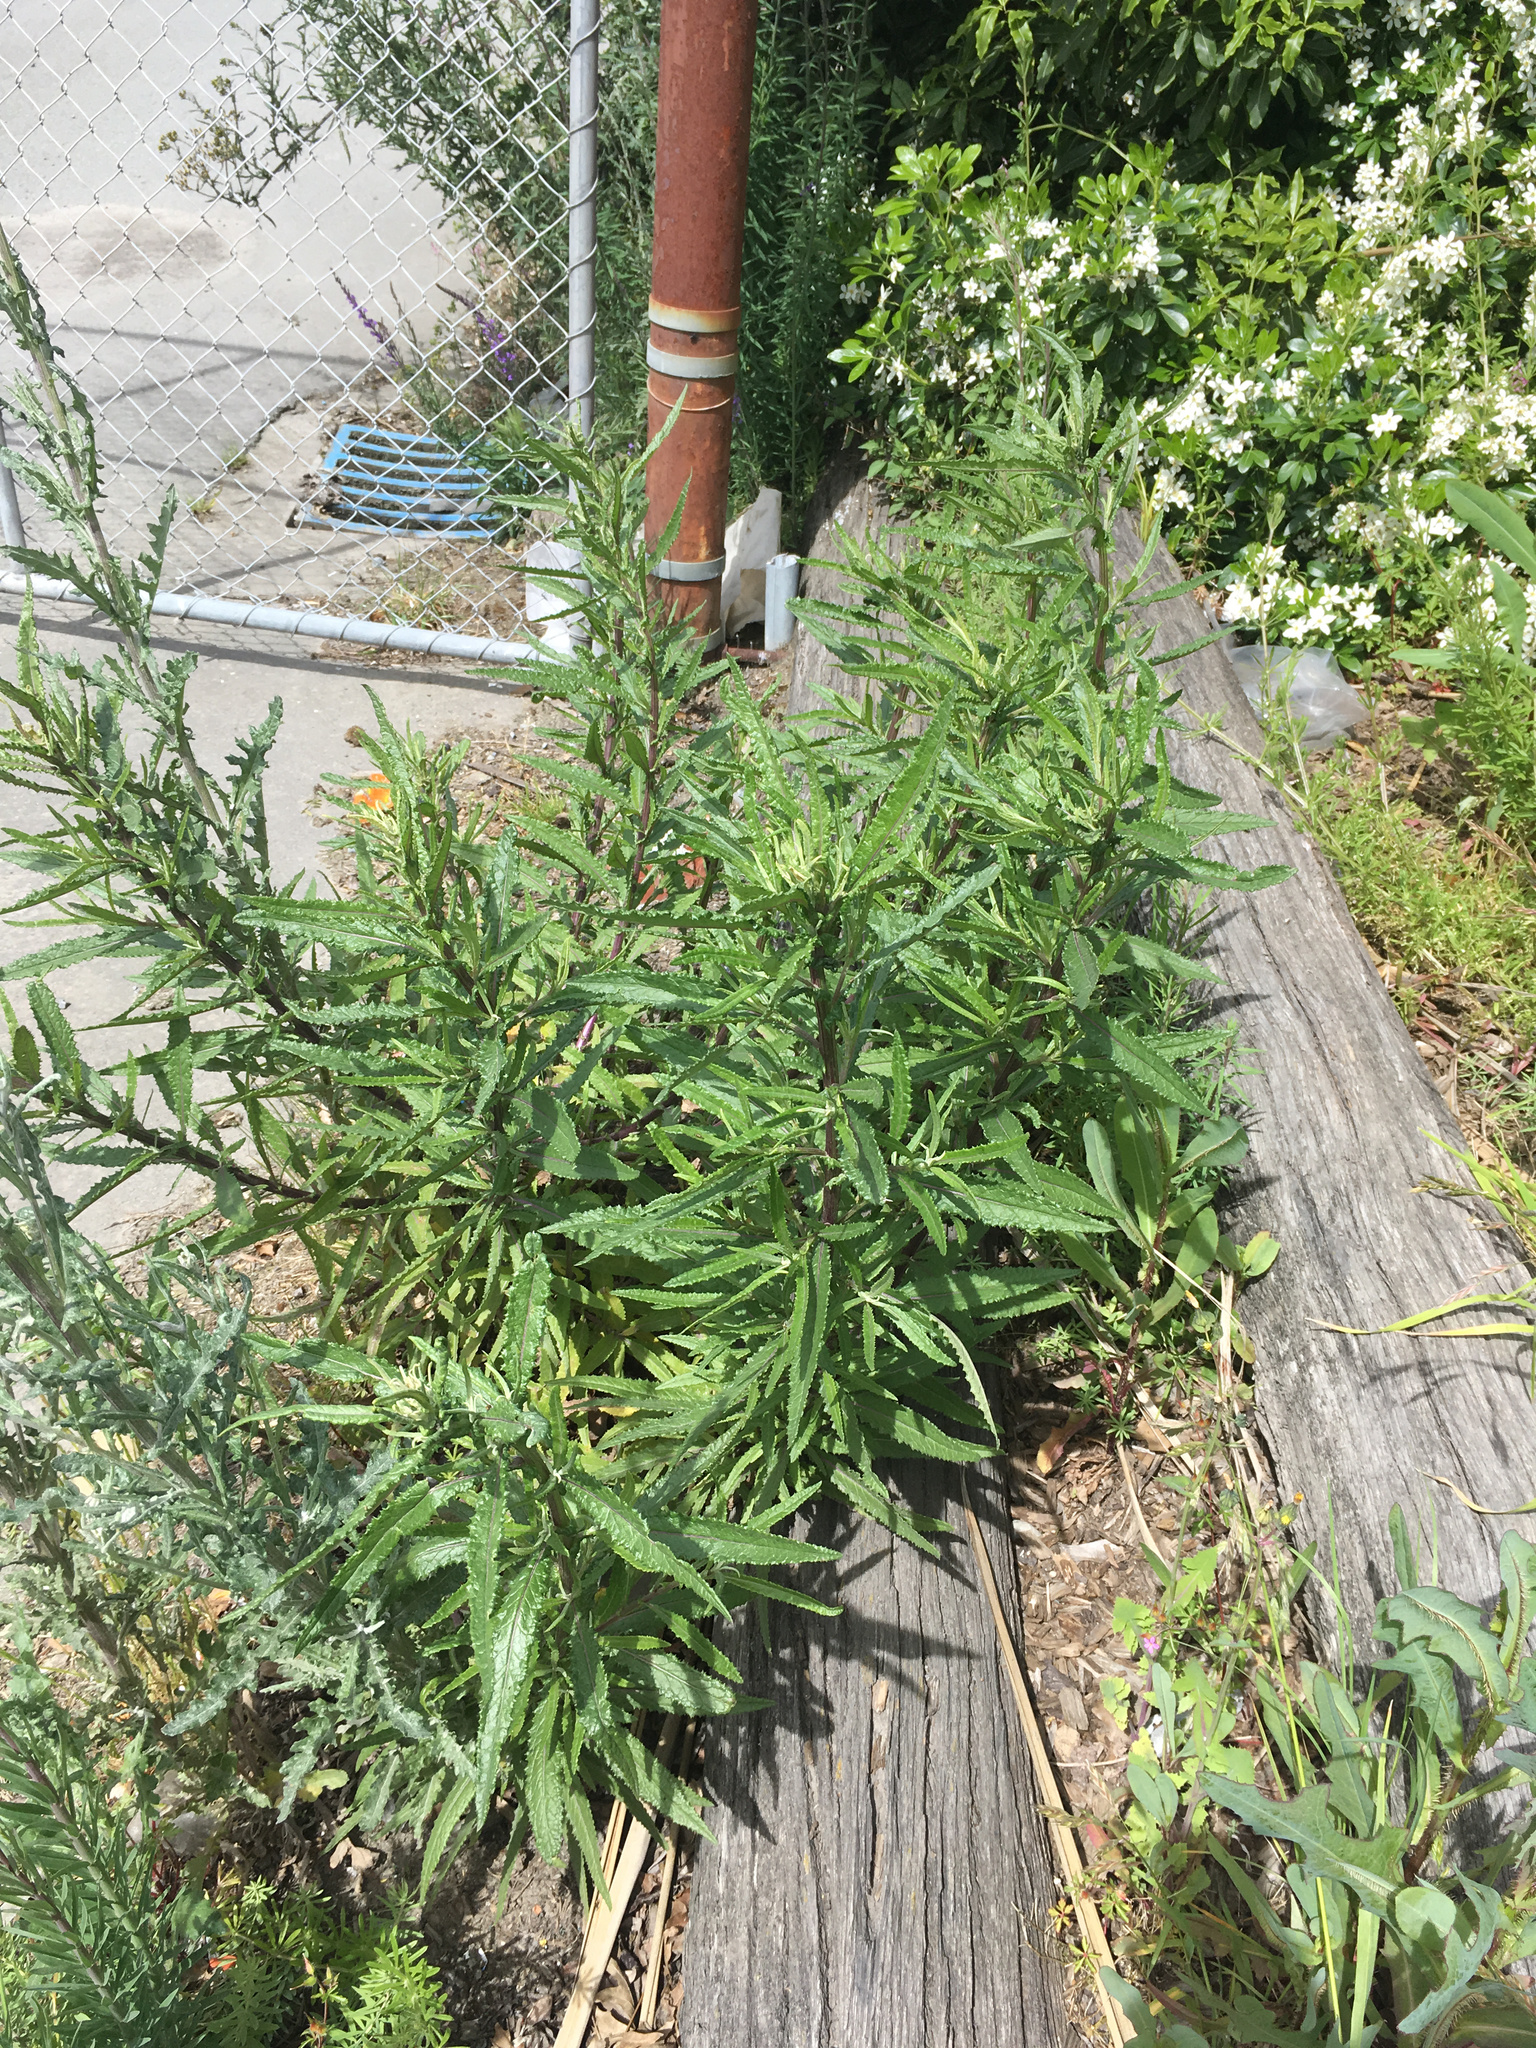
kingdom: Plantae
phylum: Tracheophyta
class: Magnoliopsida
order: Asterales
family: Asteraceae
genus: Senecio
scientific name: Senecio minimus
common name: Toothed fireweed
